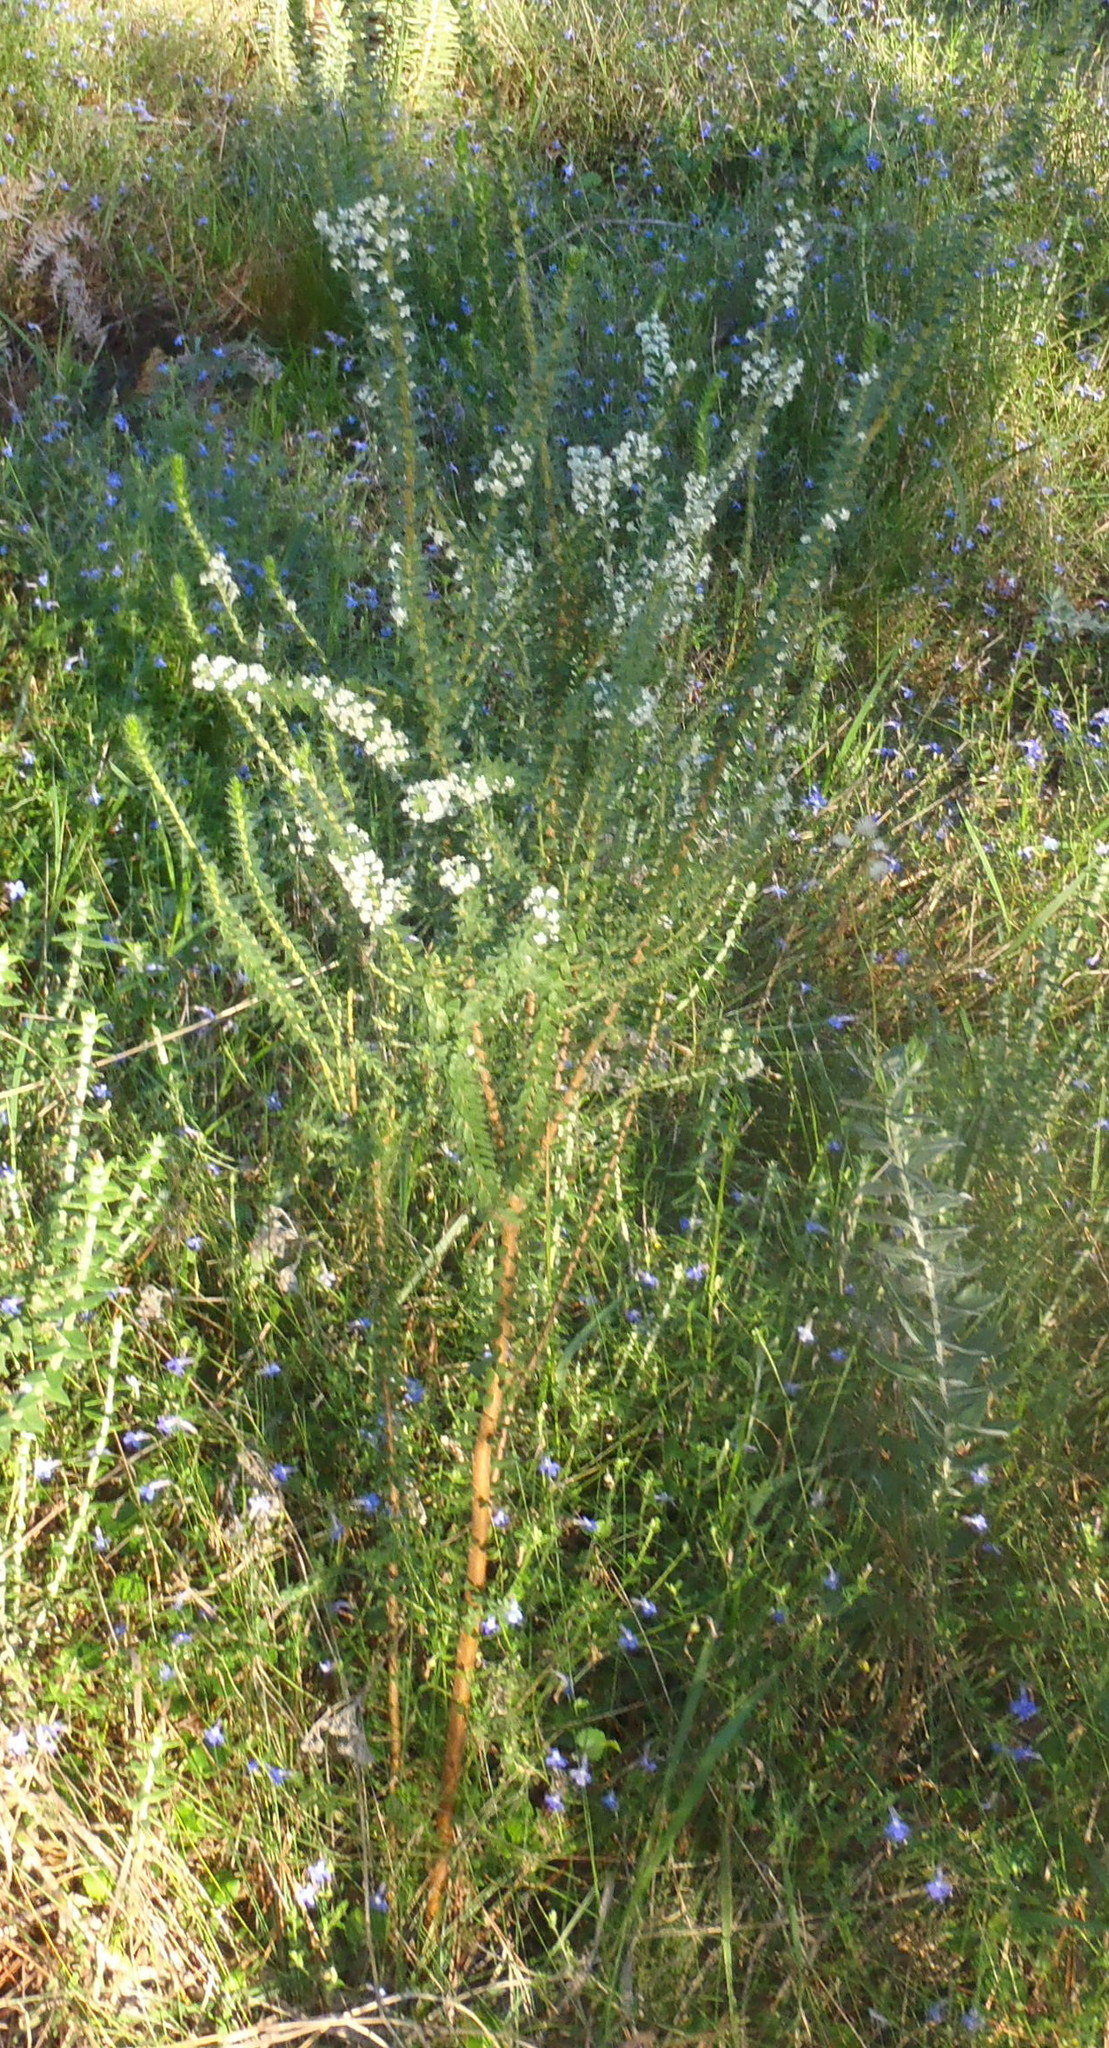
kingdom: Plantae
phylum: Tracheophyta
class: Magnoliopsida
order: Malvales
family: Thymelaeaceae
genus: Struthiola
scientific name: Struthiola hirsuta
